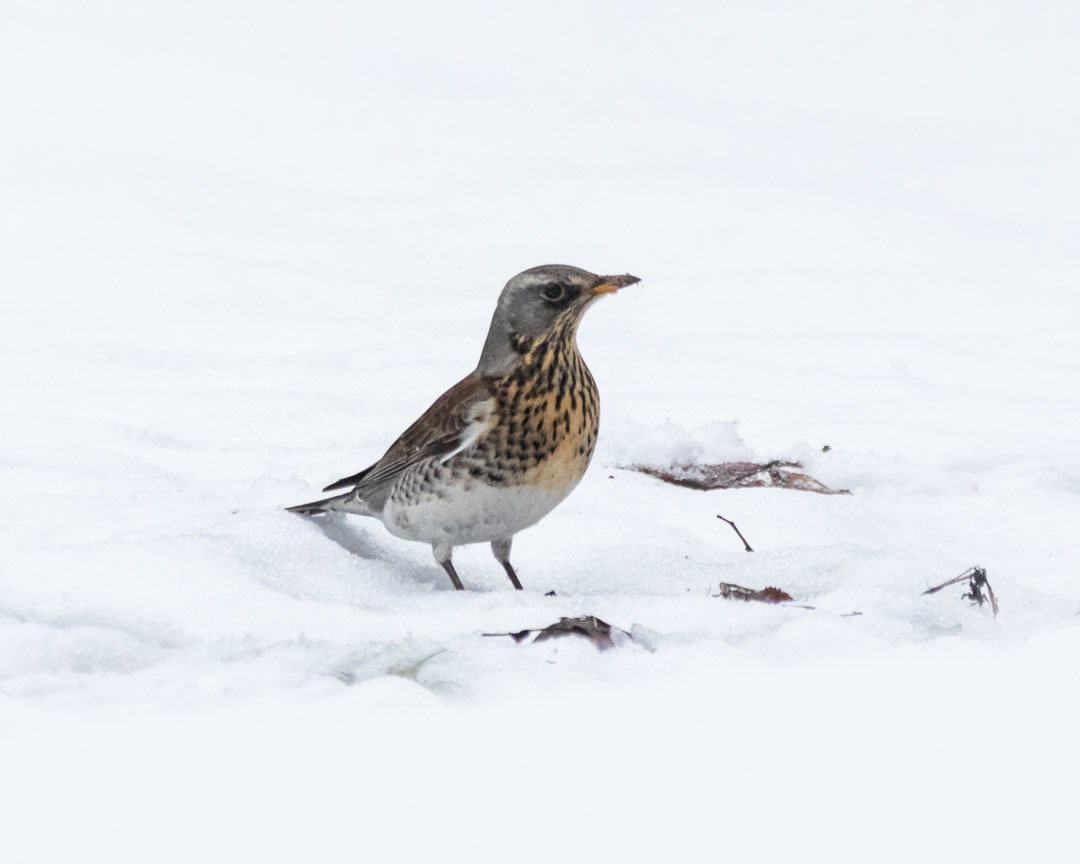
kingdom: Animalia
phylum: Chordata
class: Aves
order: Passeriformes
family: Turdidae
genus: Turdus
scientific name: Turdus pilaris
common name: Fieldfare
